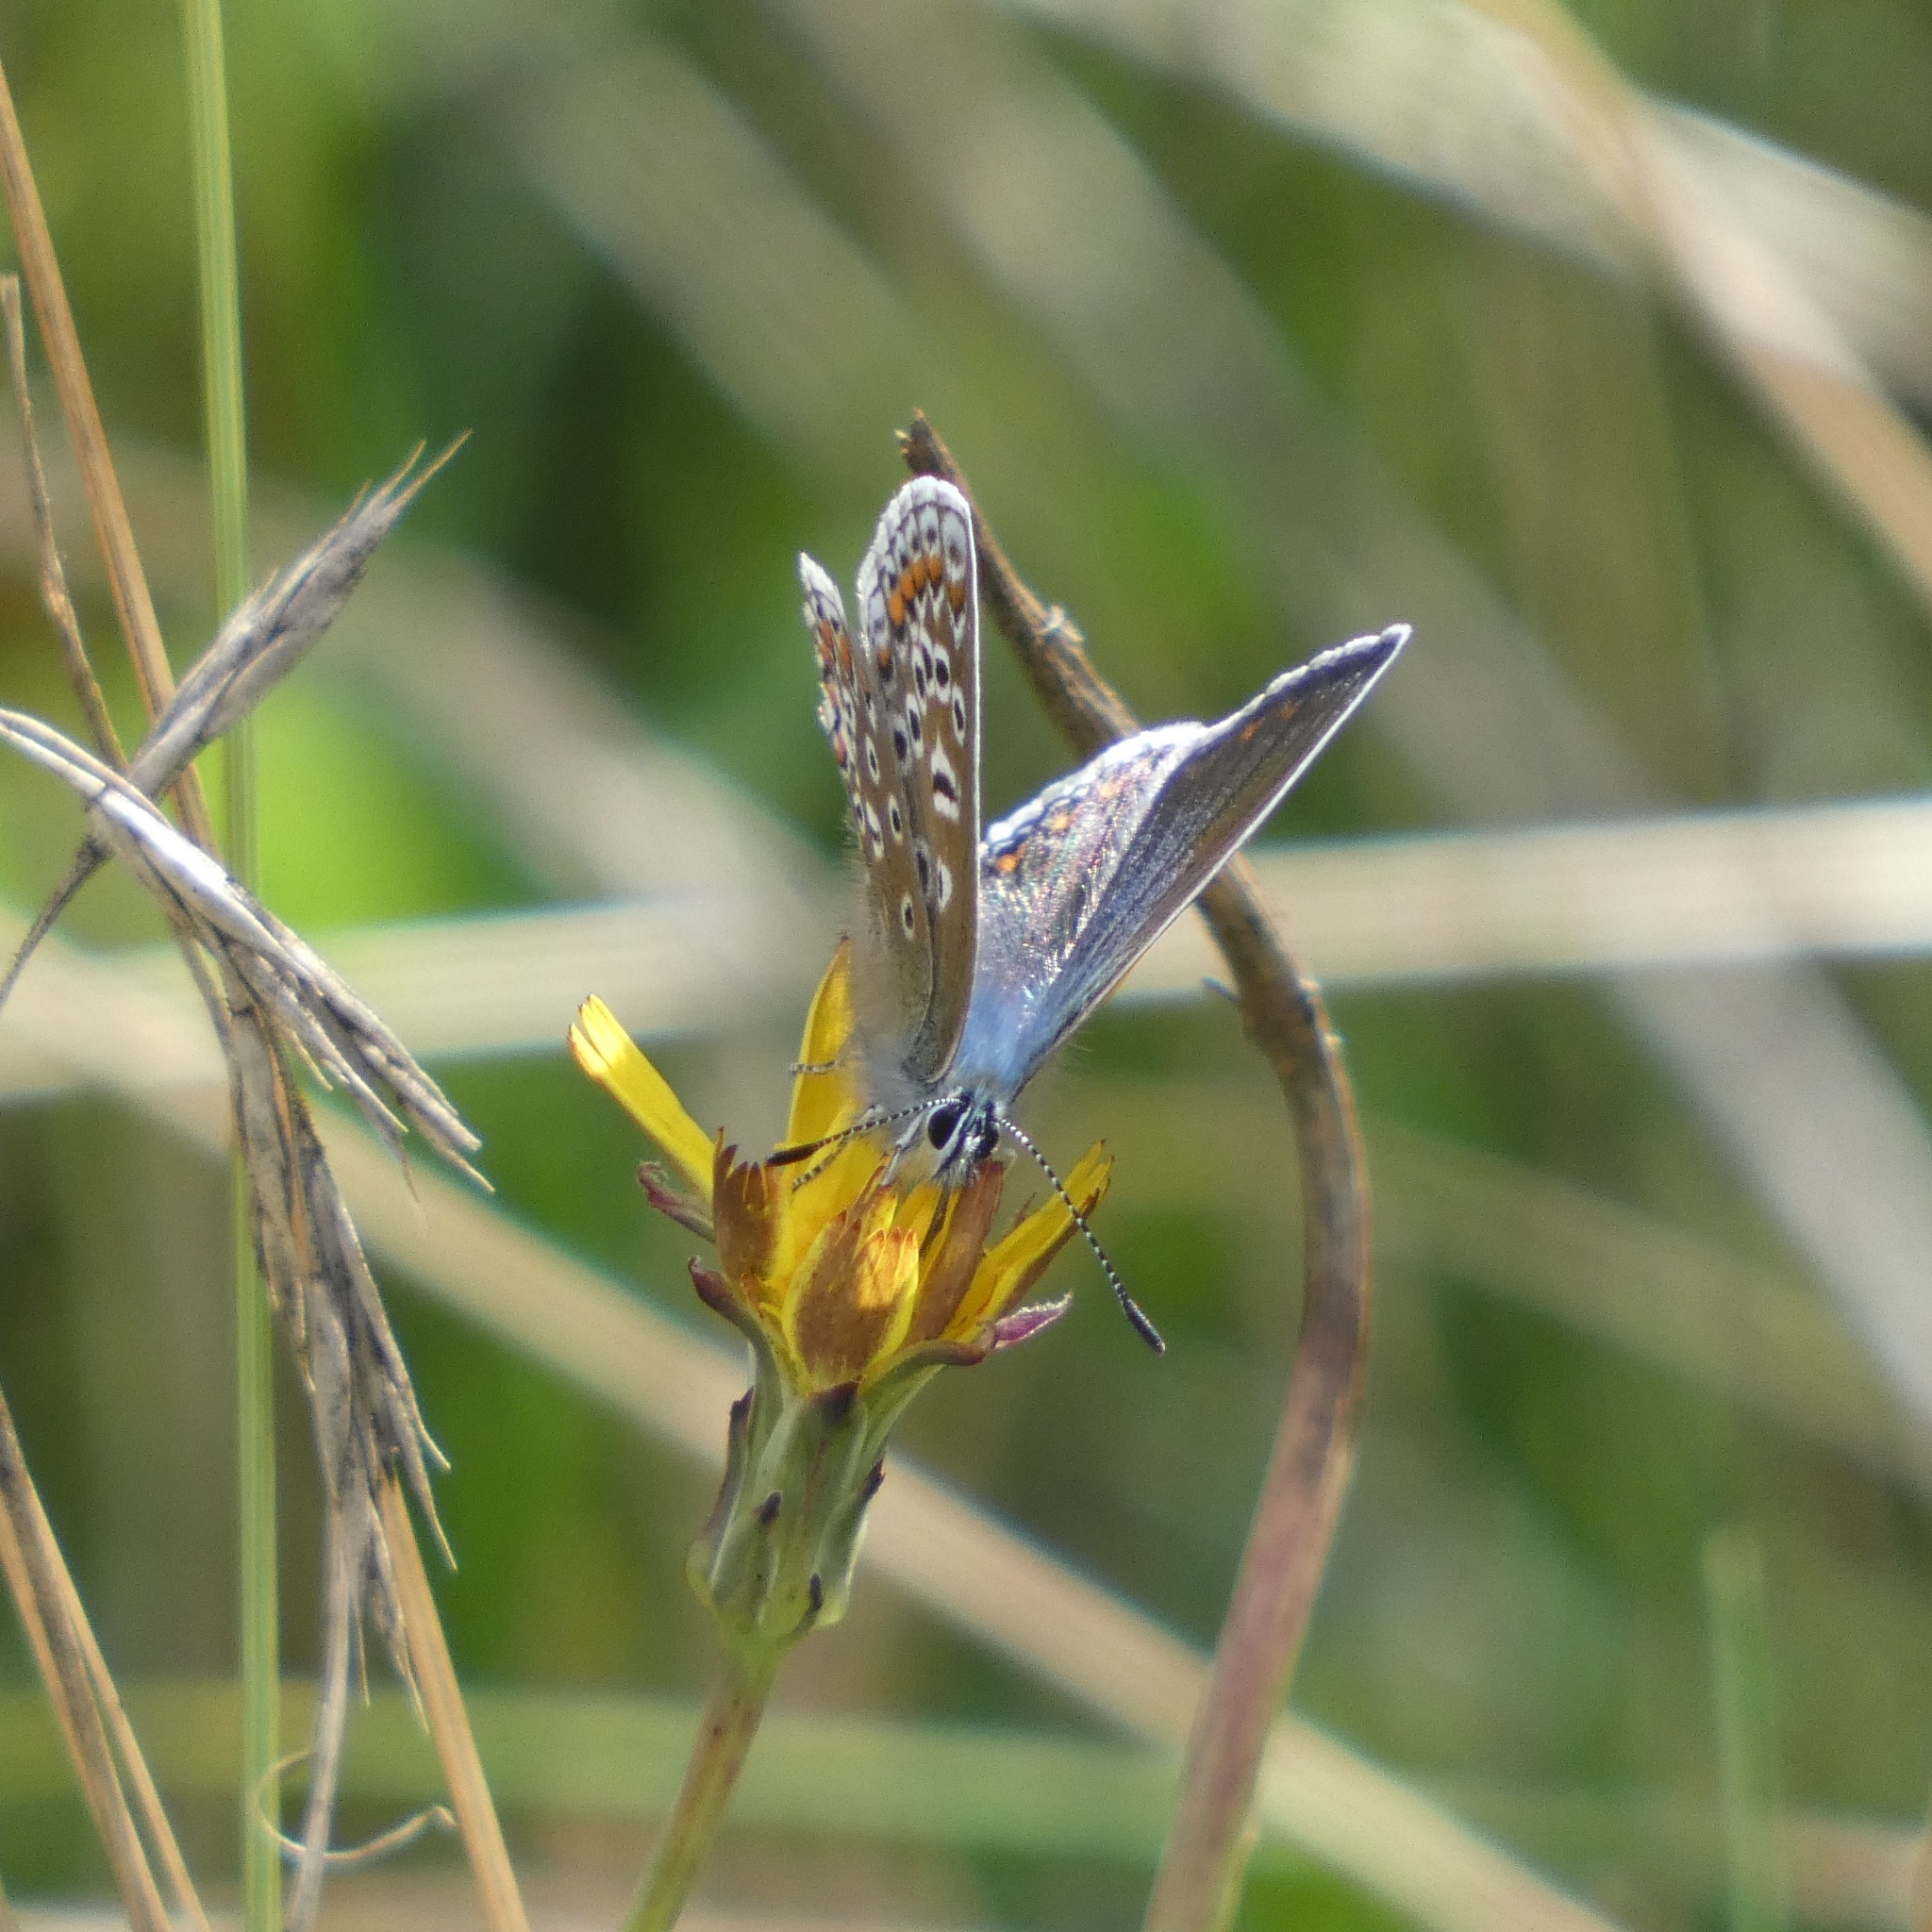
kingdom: Animalia
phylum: Arthropoda
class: Insecta
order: Lepidoptera
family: Lycaenidae
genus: Polyommatus
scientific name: Polyommatus icarus
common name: Common blue
